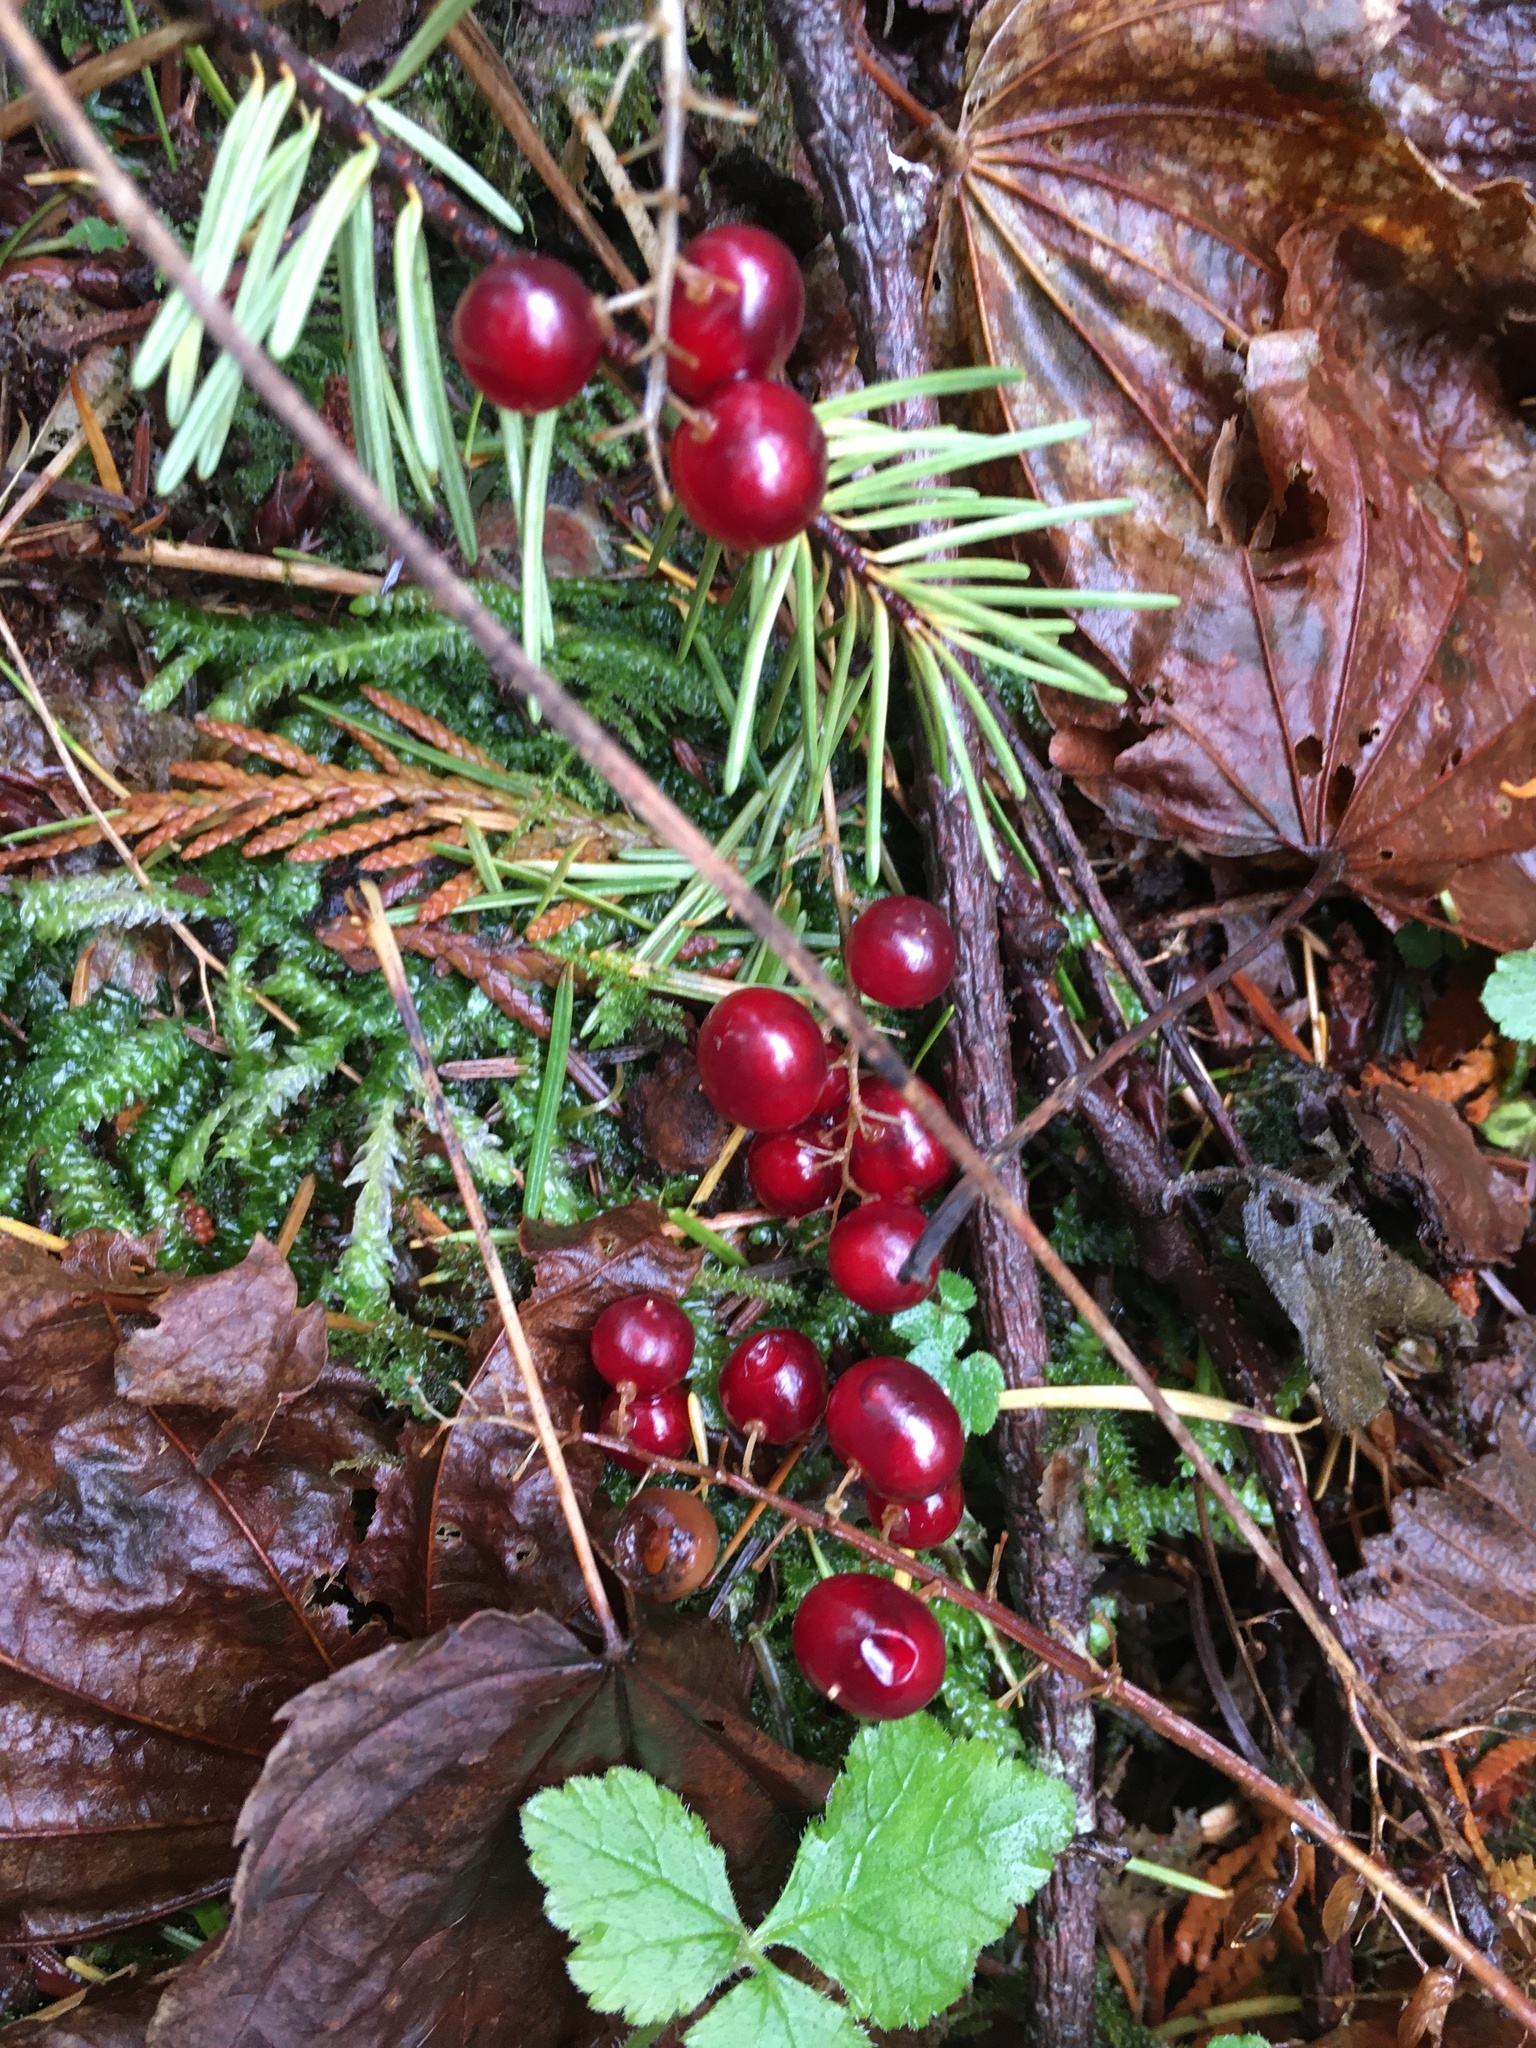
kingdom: Plantae
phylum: Tracheophyta
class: Liliopsida
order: Asparagales
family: Asparagaceae
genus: Maianthemum
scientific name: Maianthemum dilatatum
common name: False lily-of-the-valley
